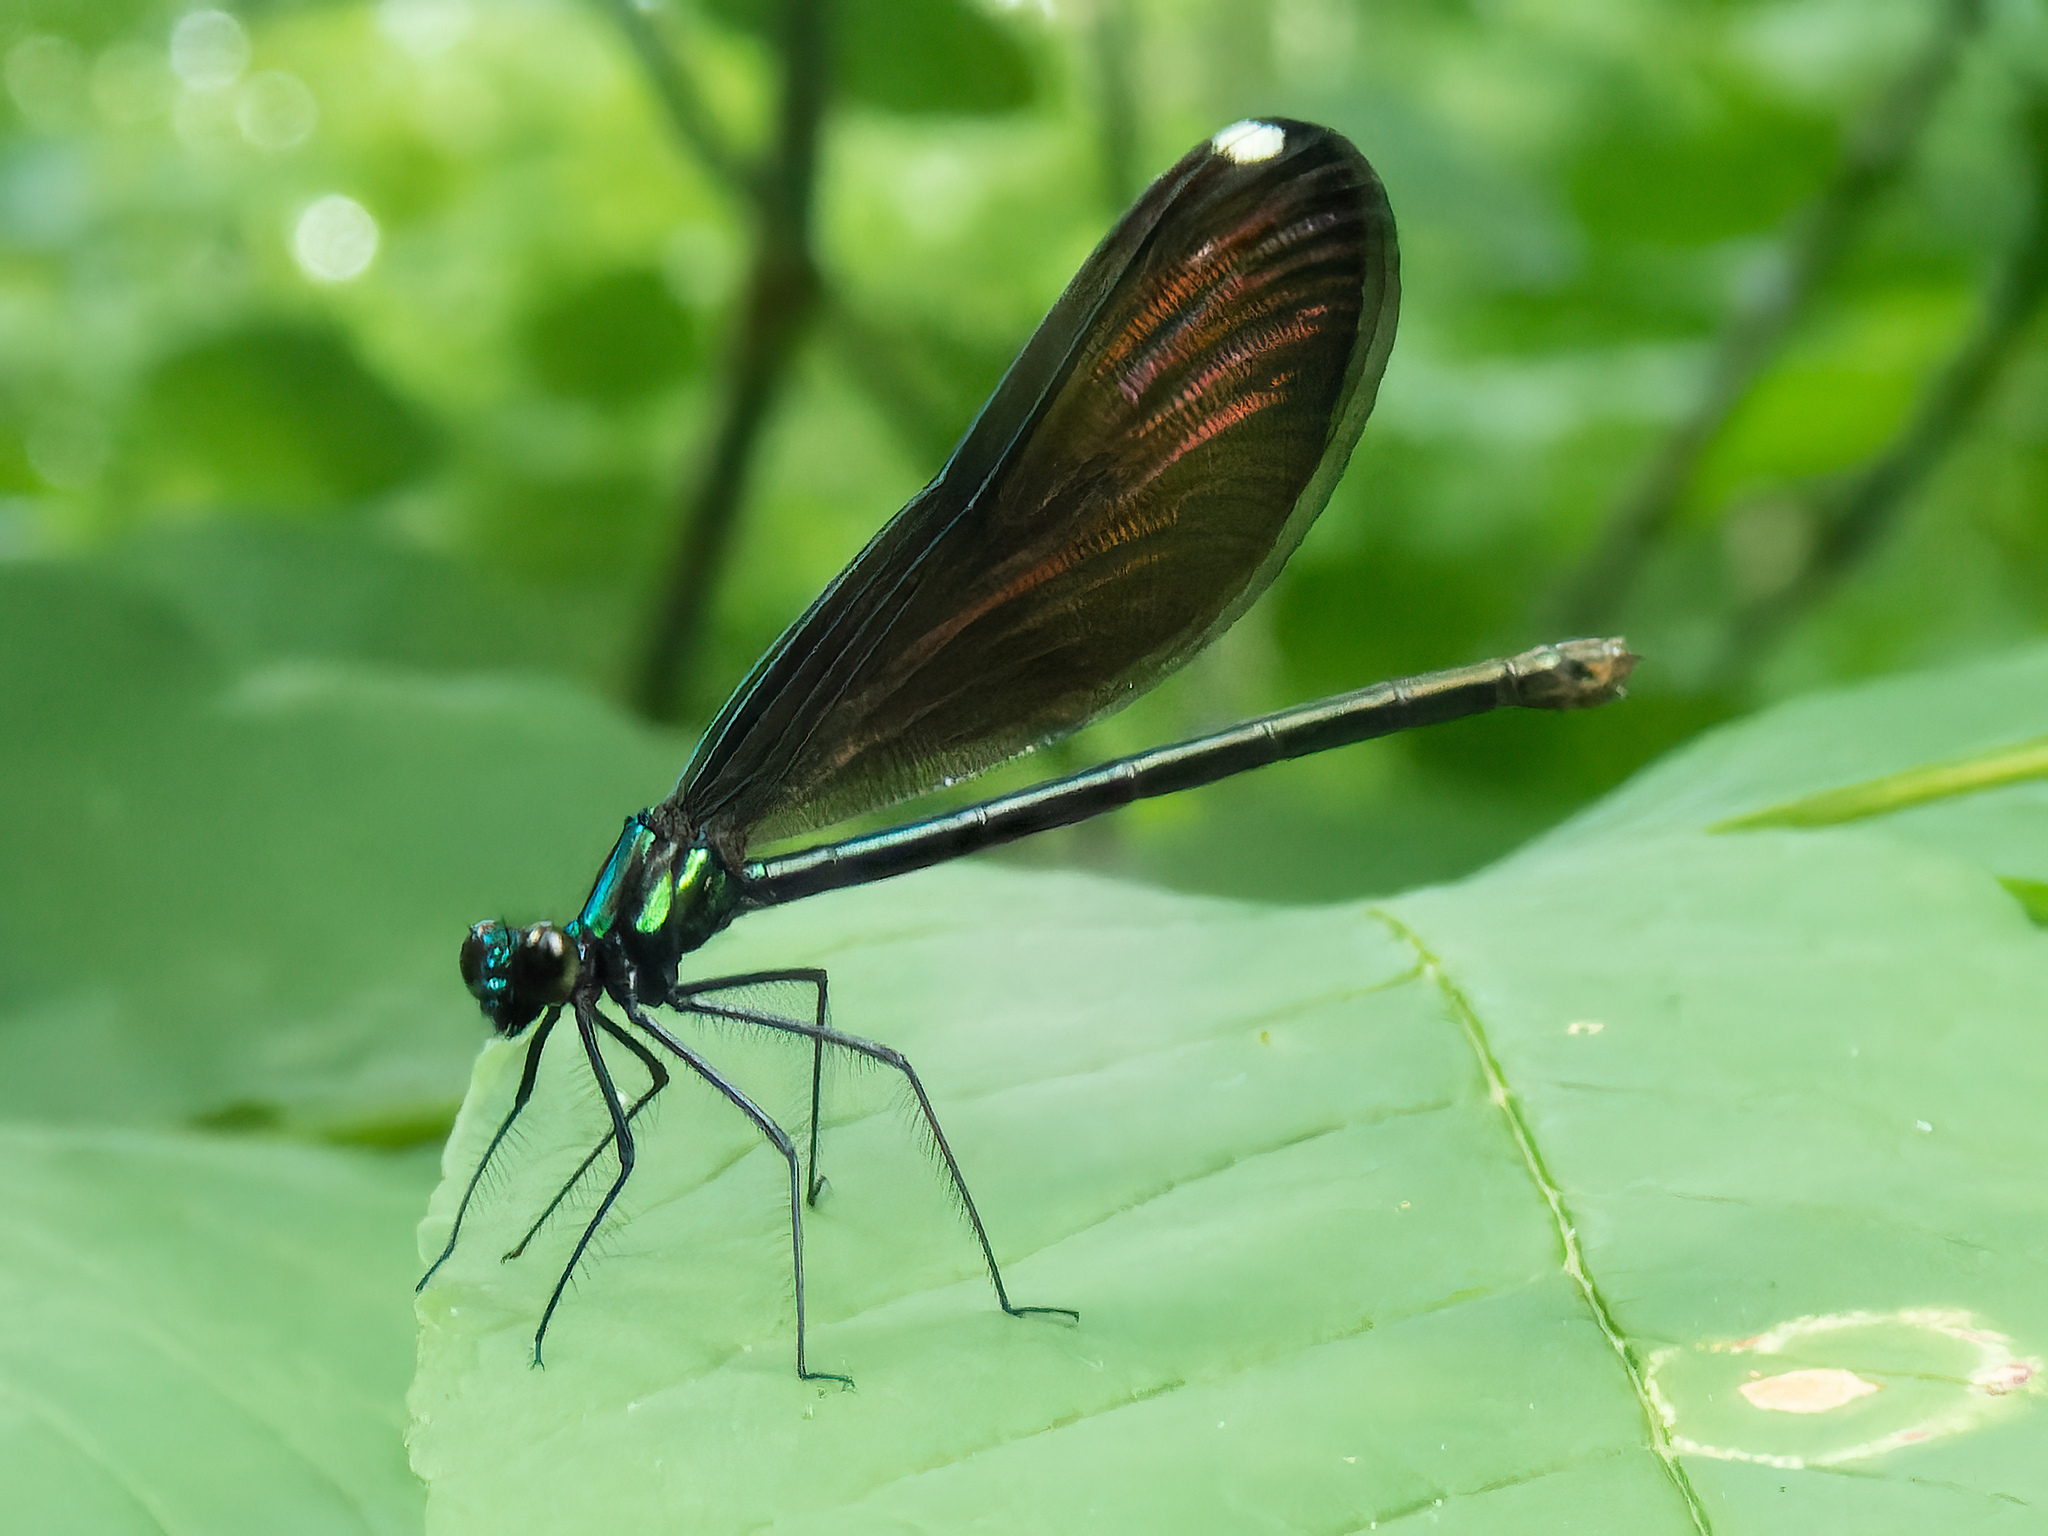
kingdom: Animalia
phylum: Arthropoda
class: Insecta
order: Odonata
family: Calopterygidae
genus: Calopteryx
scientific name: Calopteryx maculata
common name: Ebony jewelwing
